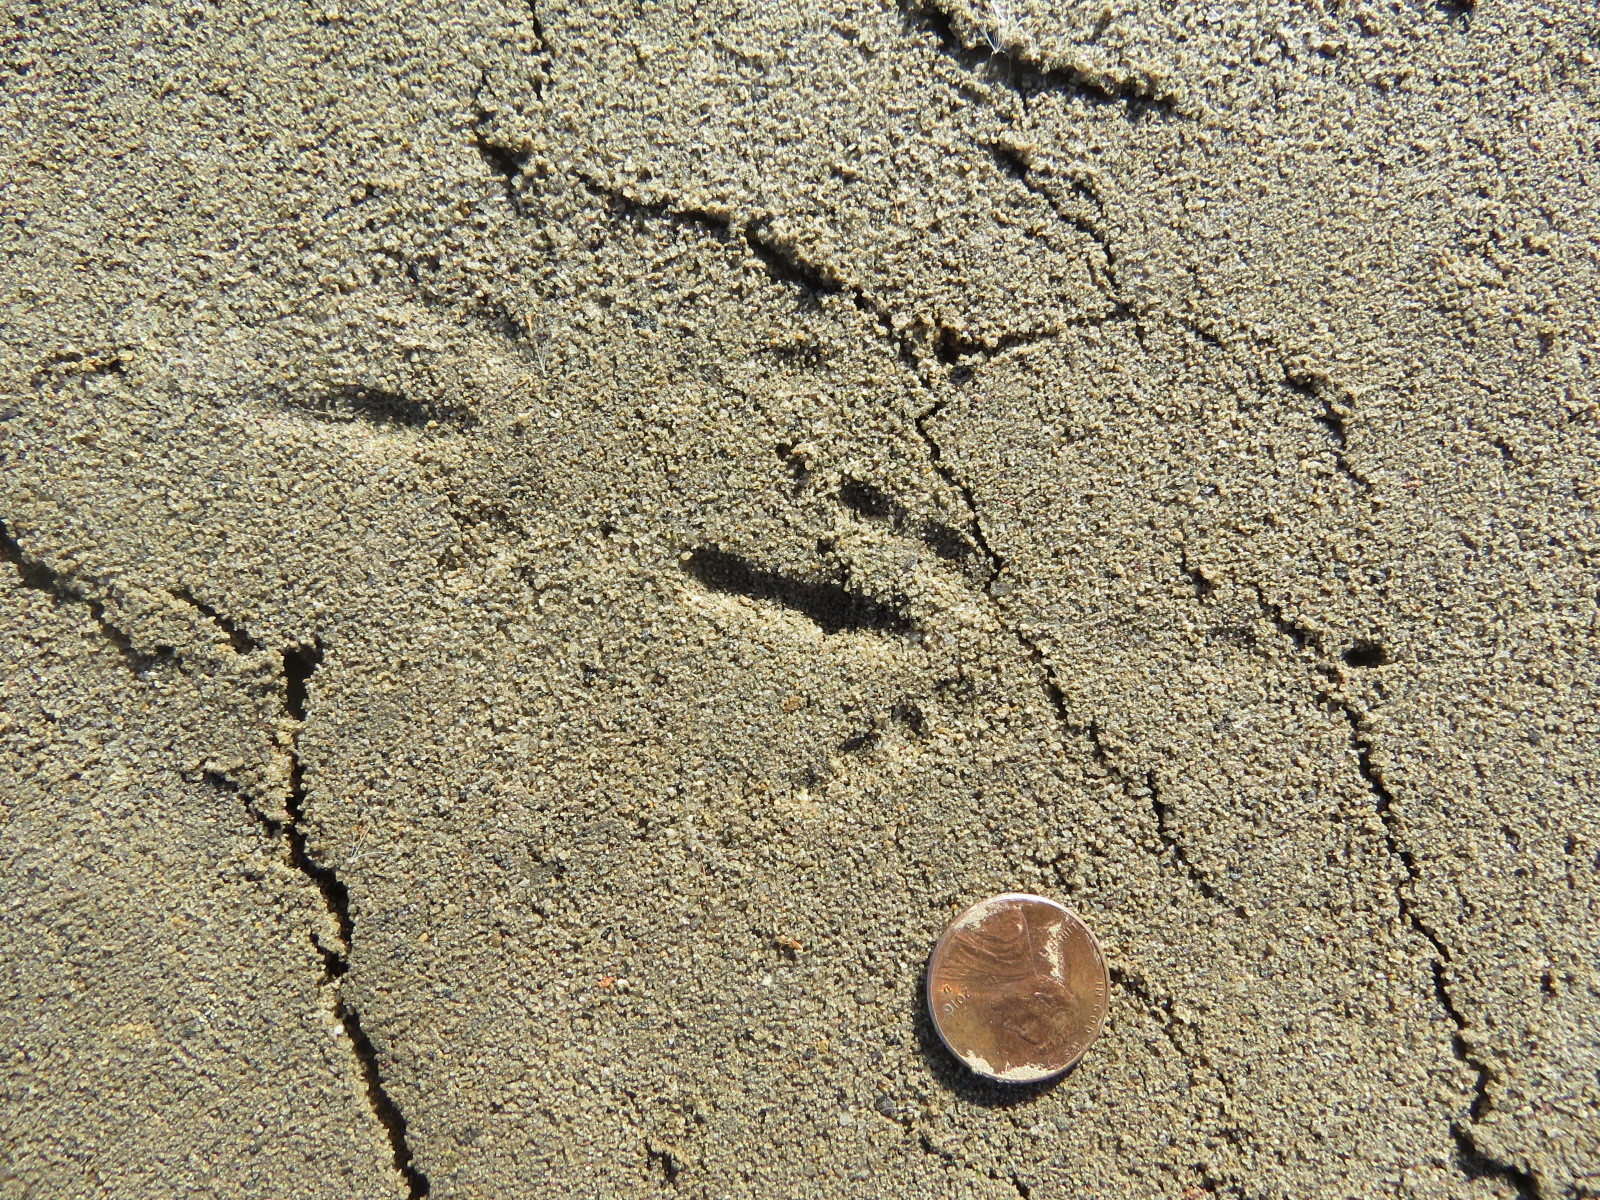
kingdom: Animalia
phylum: Chordata
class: Aves
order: Passeriformes
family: Corvidae
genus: Corvus
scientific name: Corvus brachyrhynchos
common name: American crow
